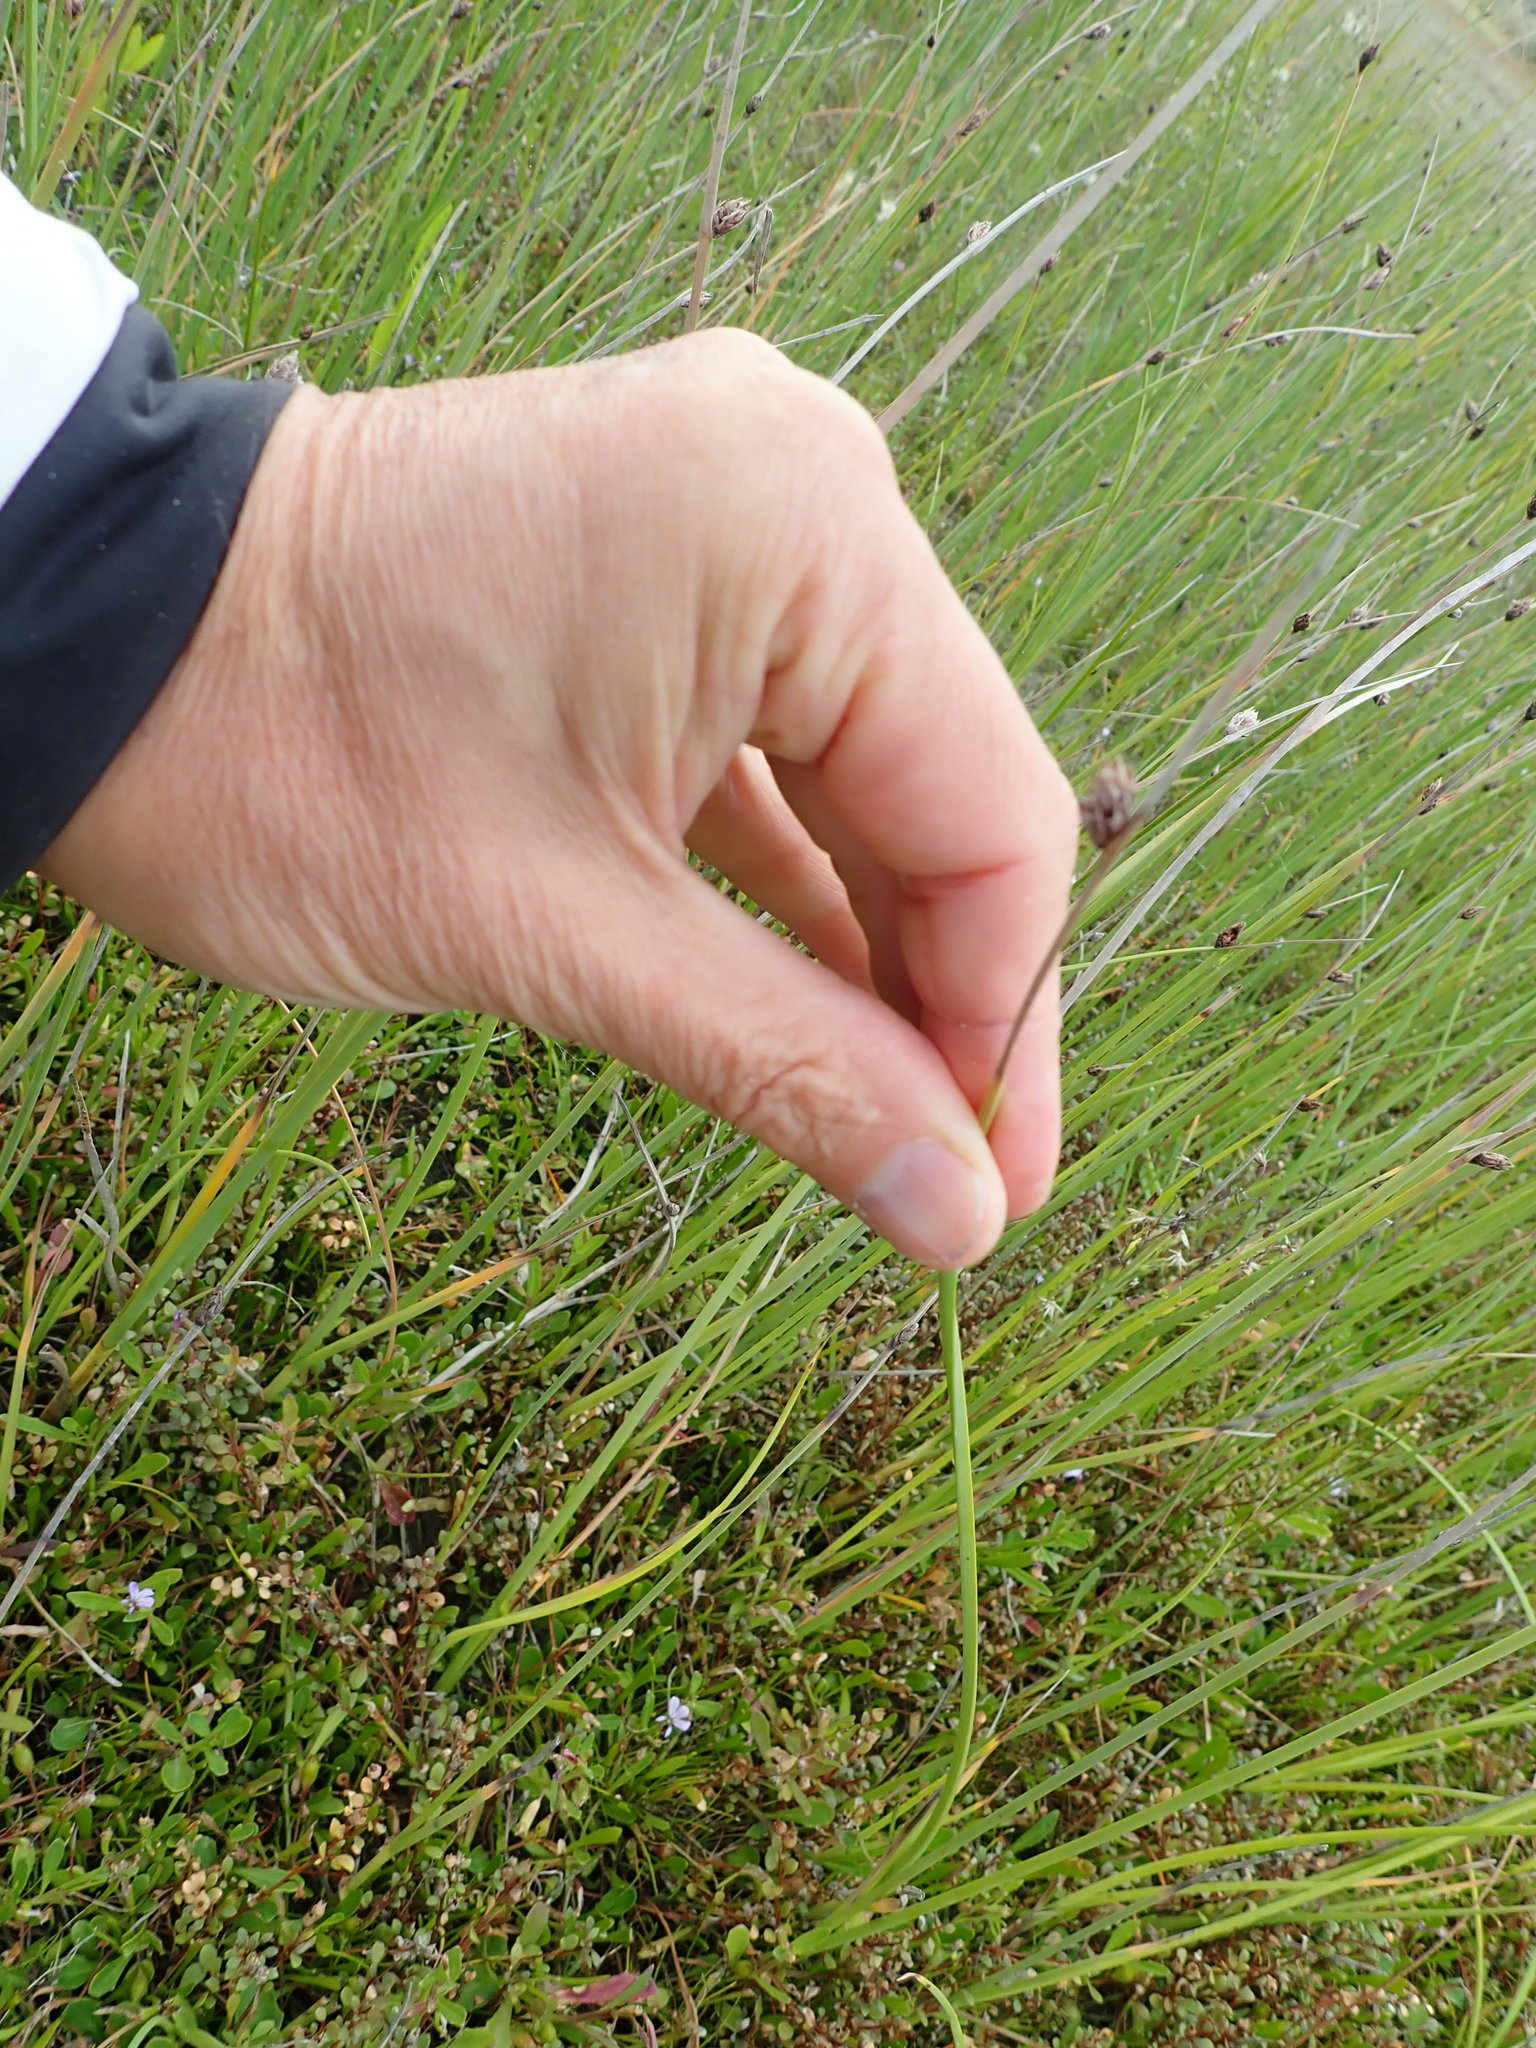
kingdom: Plantae
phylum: Tracheophyta
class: Liliopsida
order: Poales
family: Cyperaceae
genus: Schoenoplectus
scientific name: Schoenoplectus pungens
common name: Sharp club-rush
